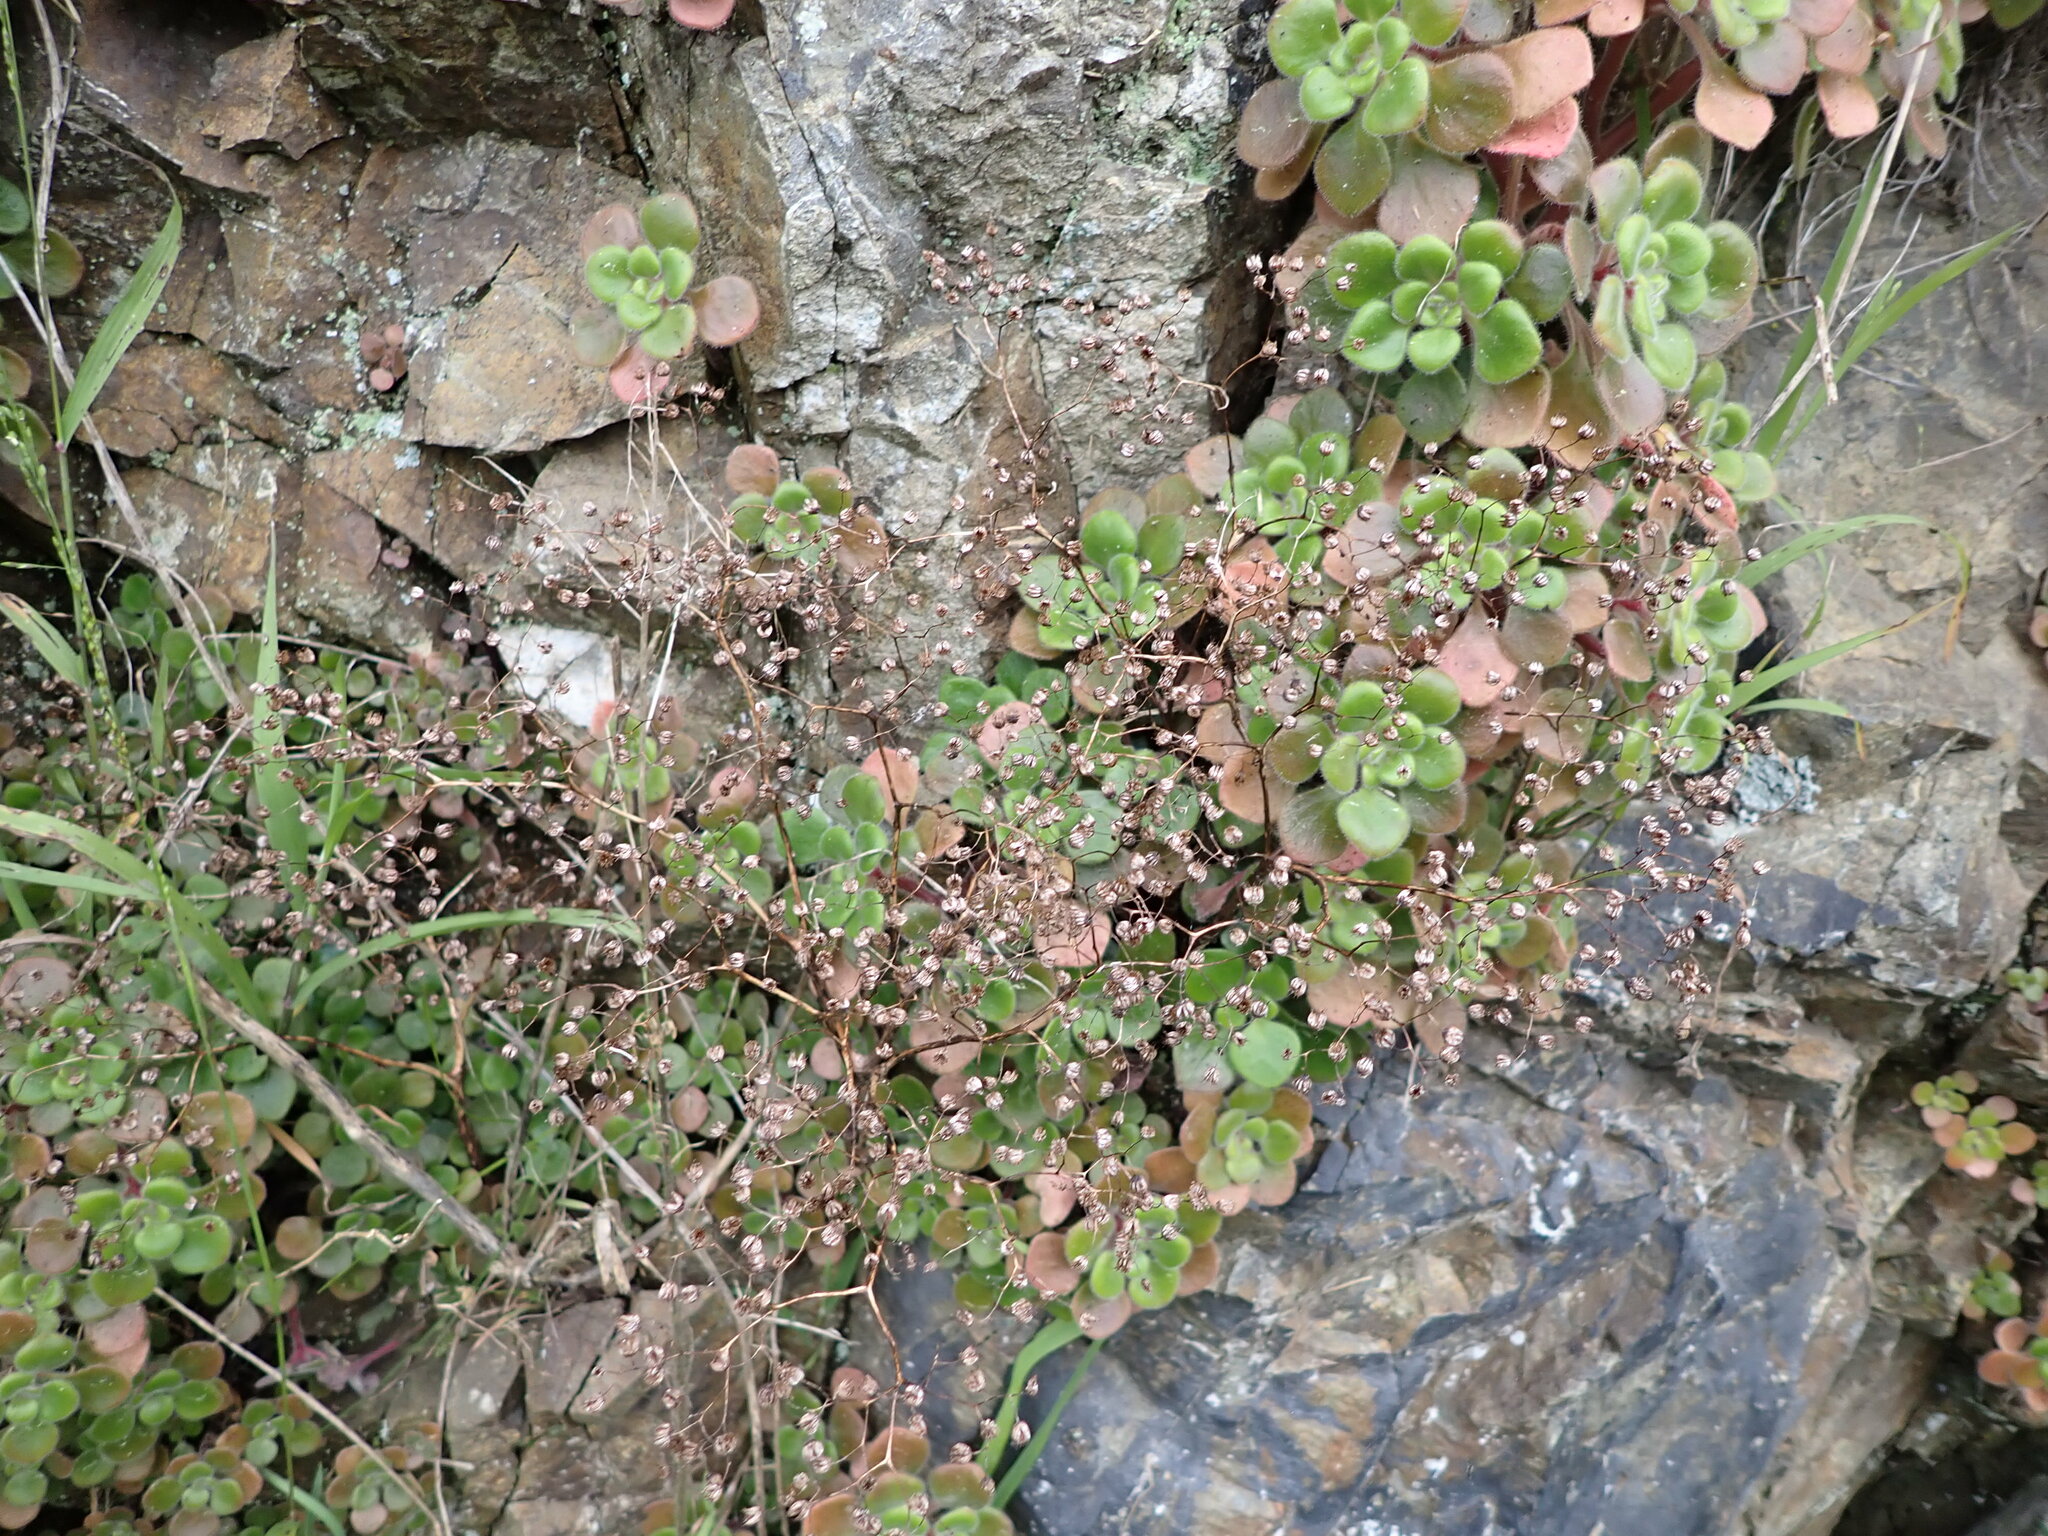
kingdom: Plantae
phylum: Tracheophyta
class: Magnoliopsida
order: Saxifragales
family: Crassulaceae
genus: Aichryson
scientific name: Aichryson laxum
